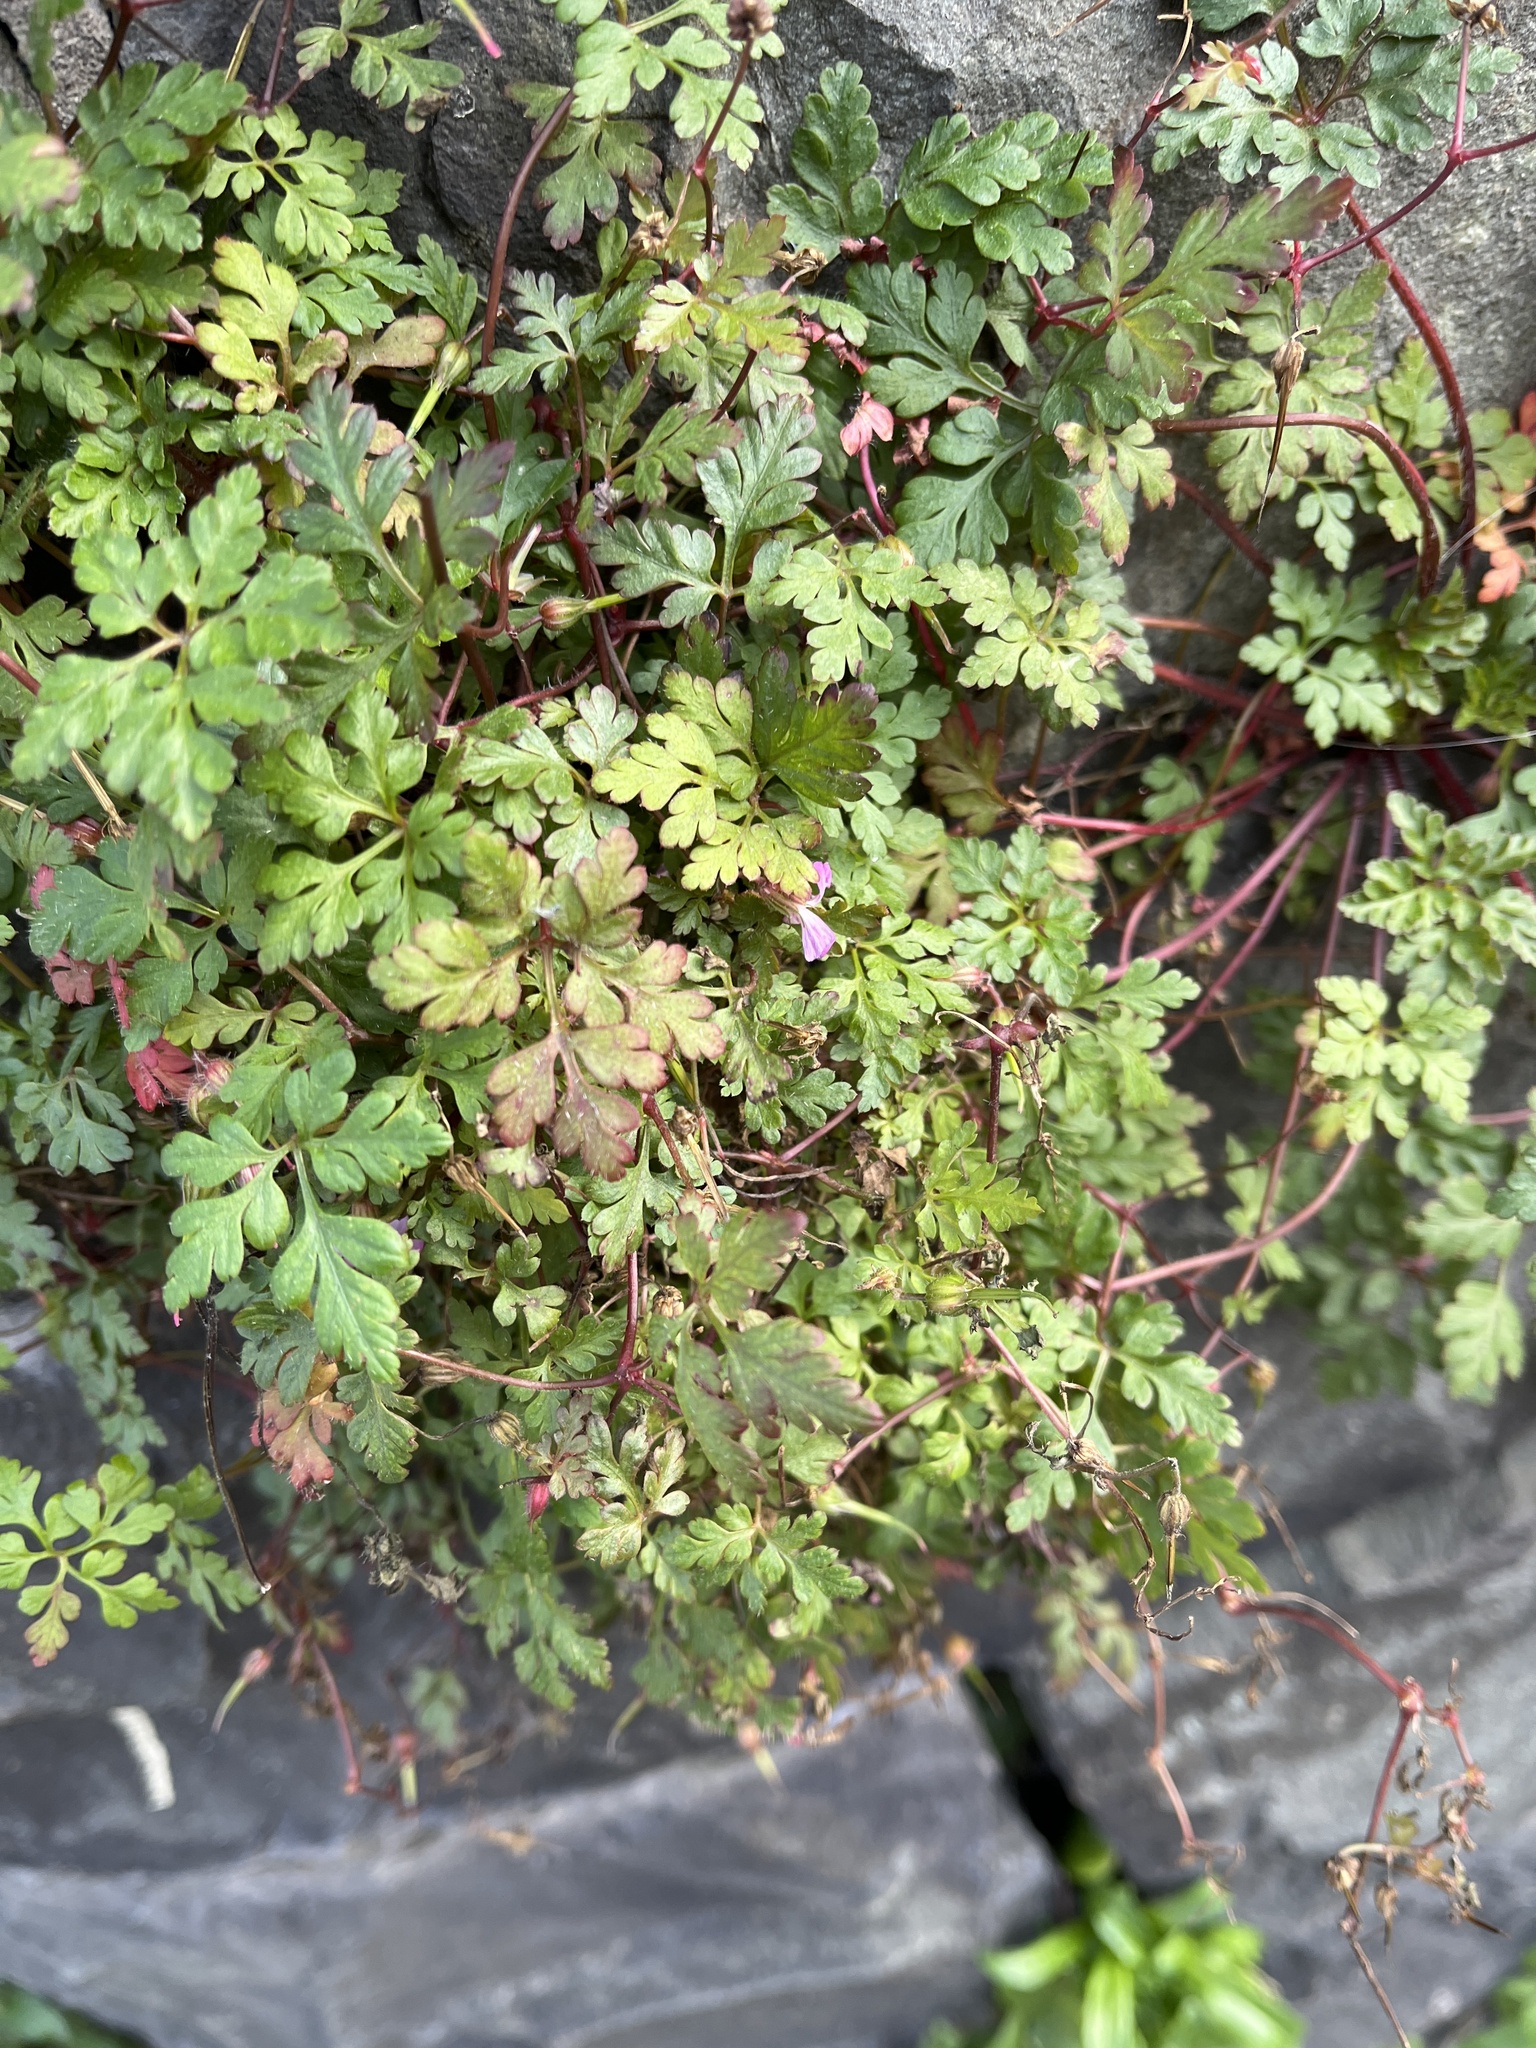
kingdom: Plantae
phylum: Tracheophyta
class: Magnoliopsida
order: Geraniales
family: Geraniaceae
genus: Geranium
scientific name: Geranium robertianum
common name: Herb-robert
